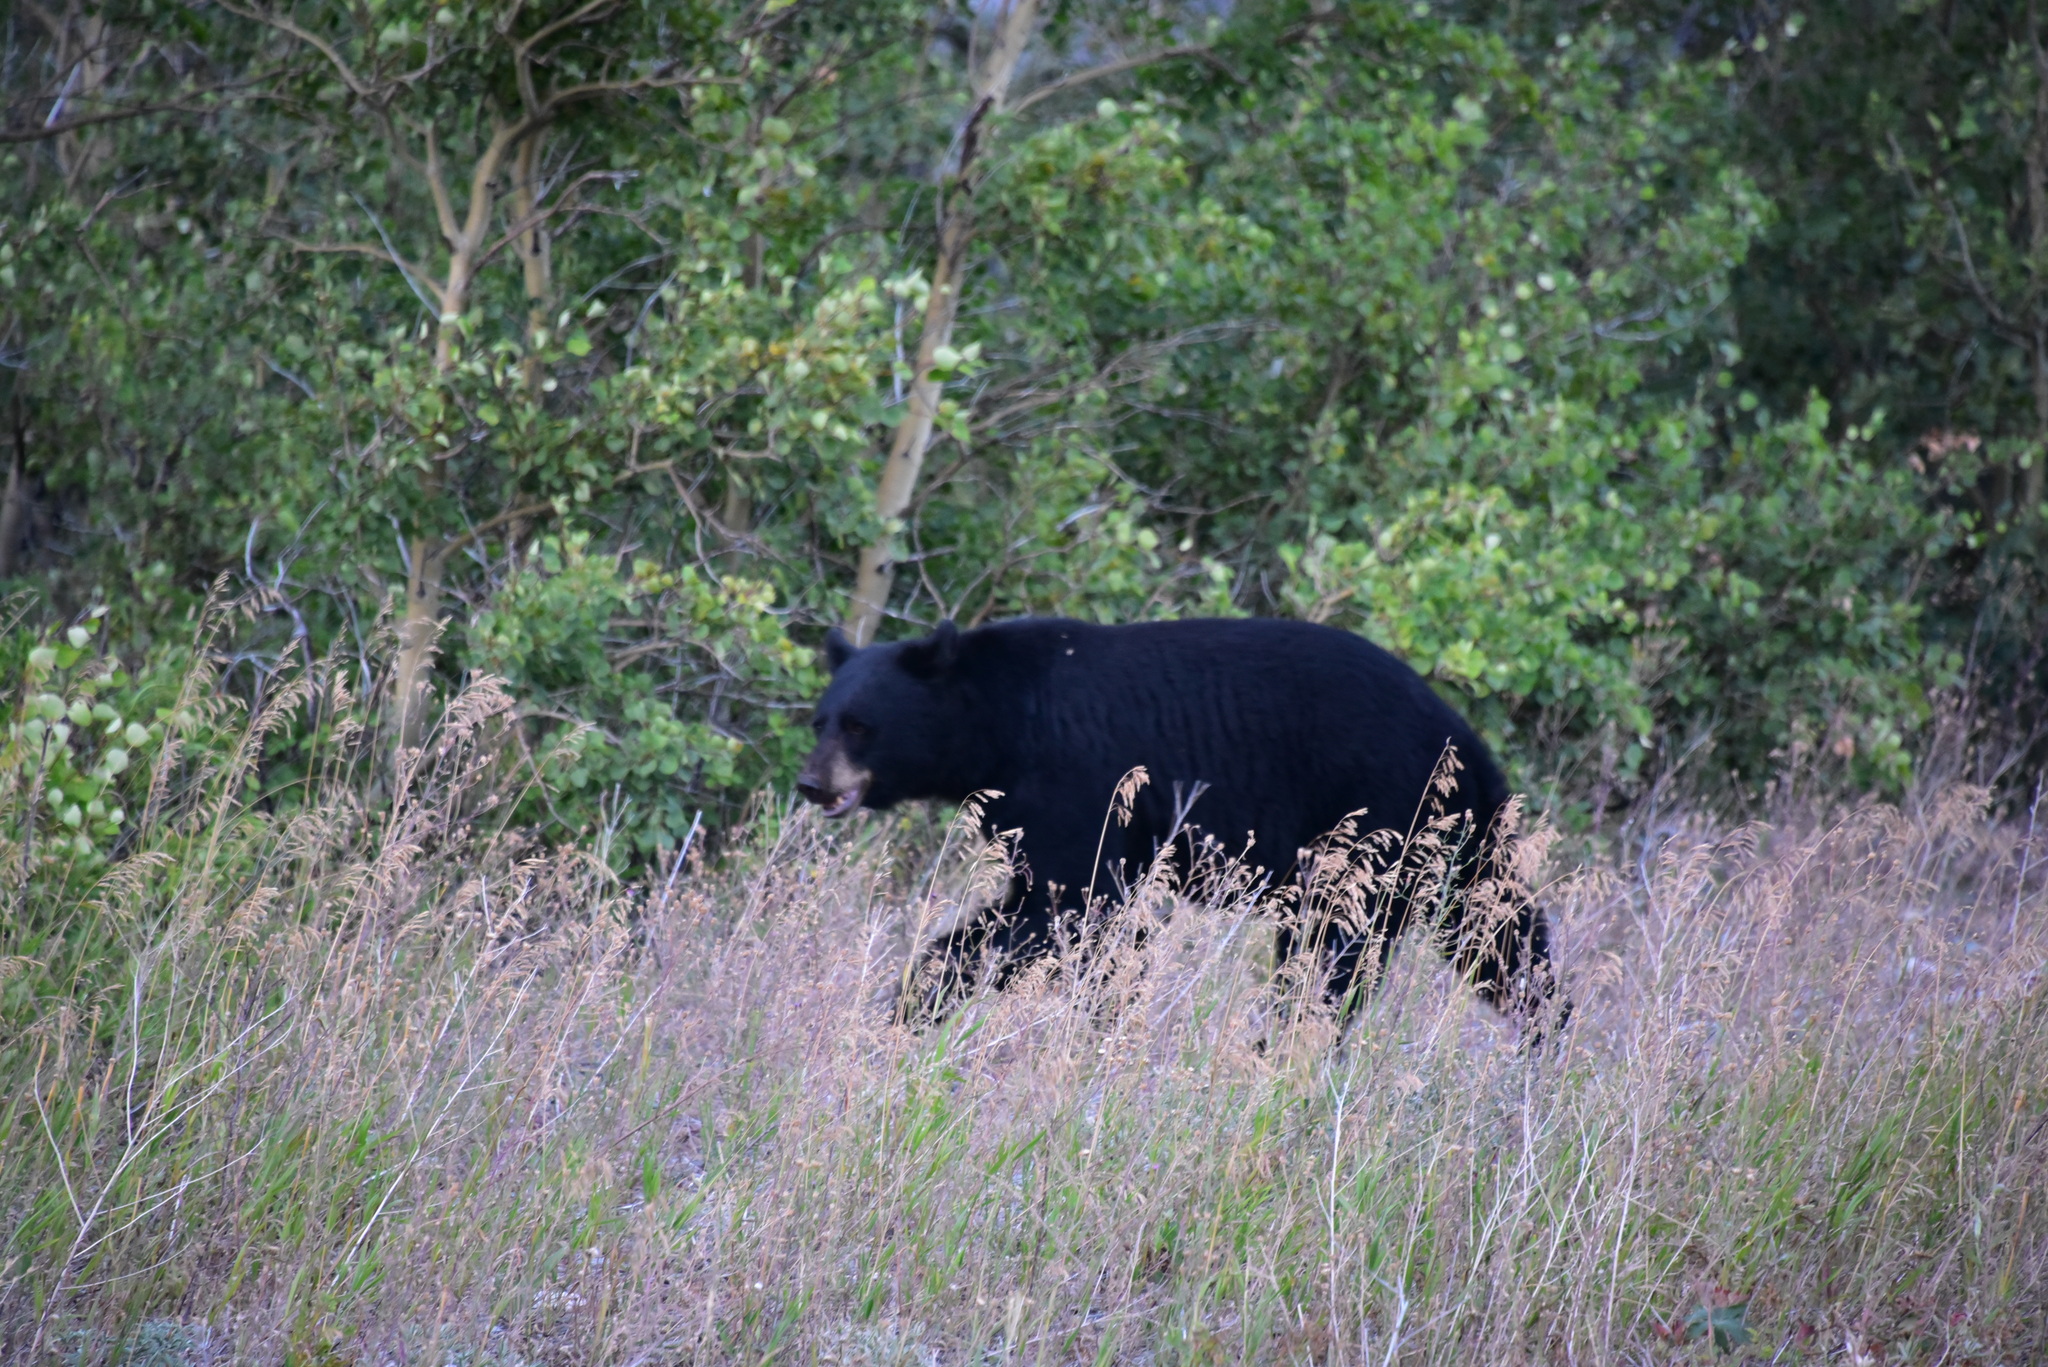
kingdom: Animalia
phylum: Chordata
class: Mammalia
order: Carnivora
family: Ursidae
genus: Ursus
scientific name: Ursus americanus
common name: American black bear
